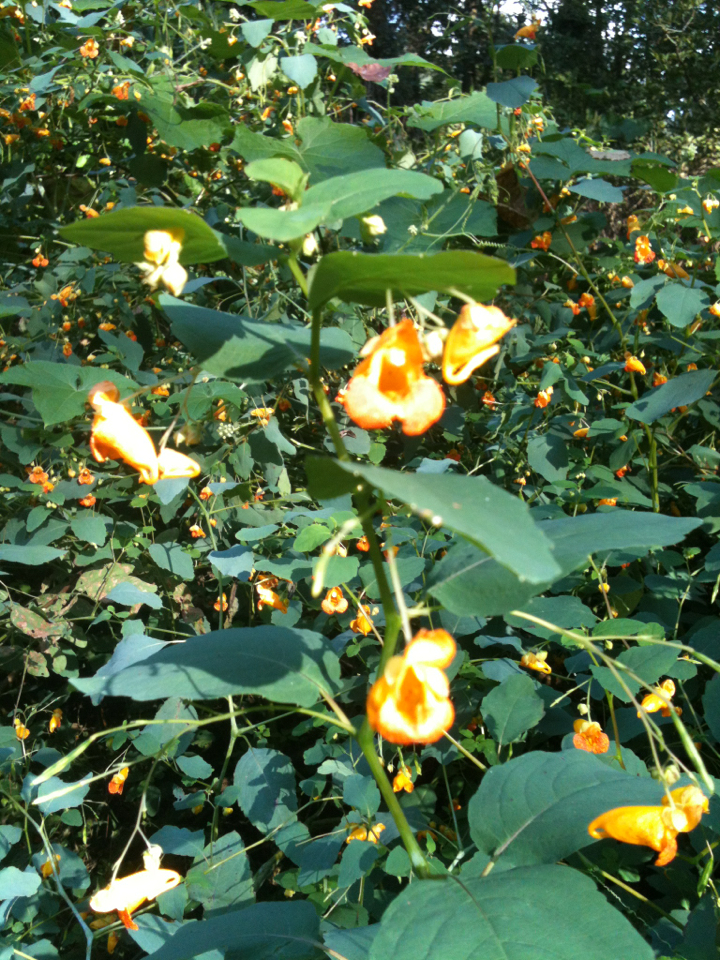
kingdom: Plantae
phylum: Tracheophyta
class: Magnoliopsida
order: Ericales
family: Balsaminaceae
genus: Impatiens
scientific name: Impatiens capensis
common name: Orange balsam
